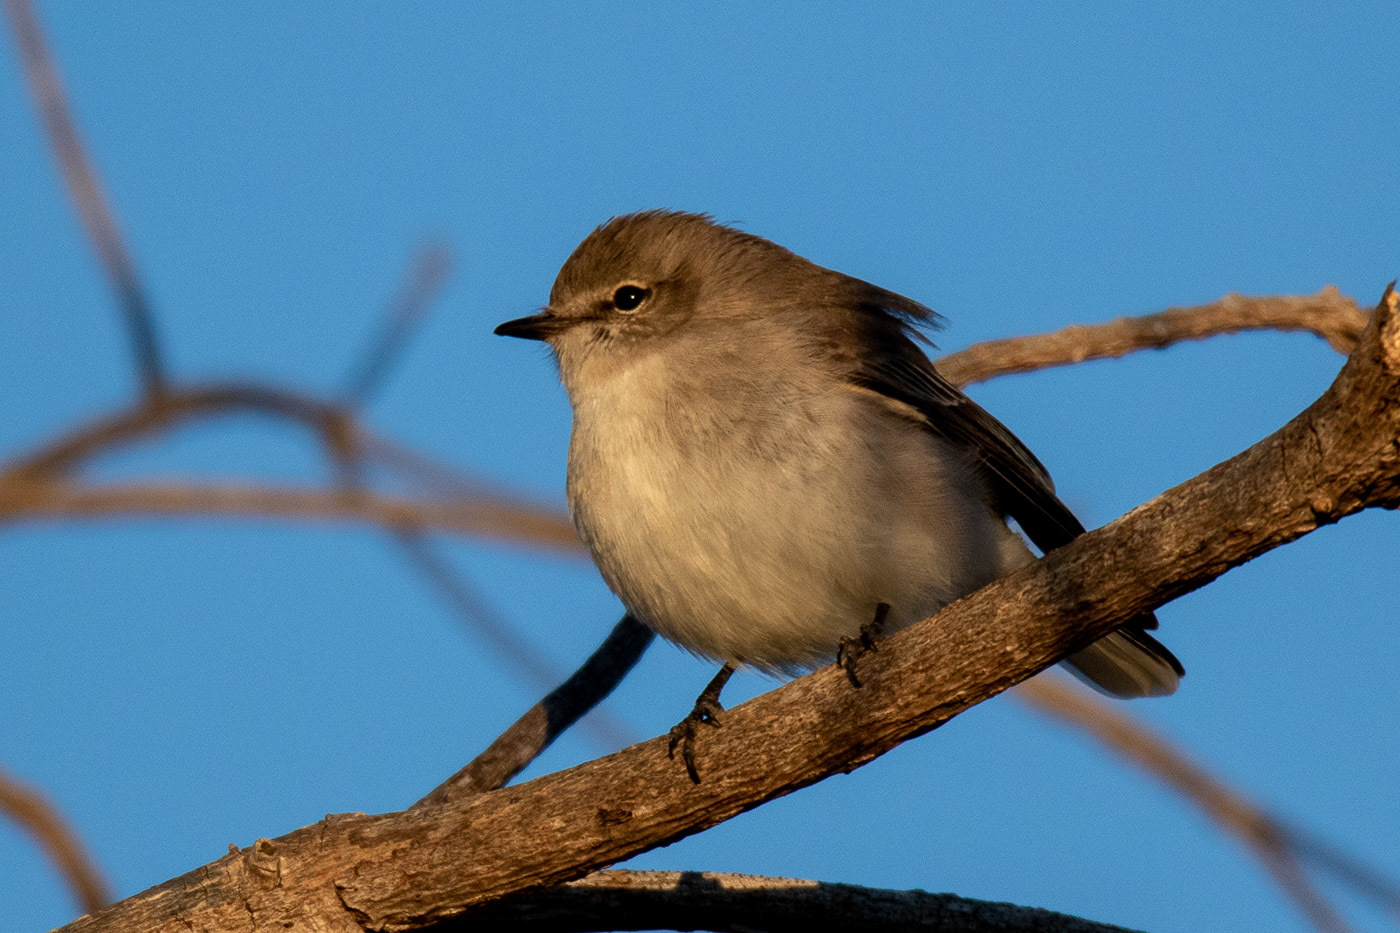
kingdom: Animalia
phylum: Chordata
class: Aves
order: Passeriformes
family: Petroicidae
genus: Microeca
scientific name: Microeca fascinans
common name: Jacky winter
